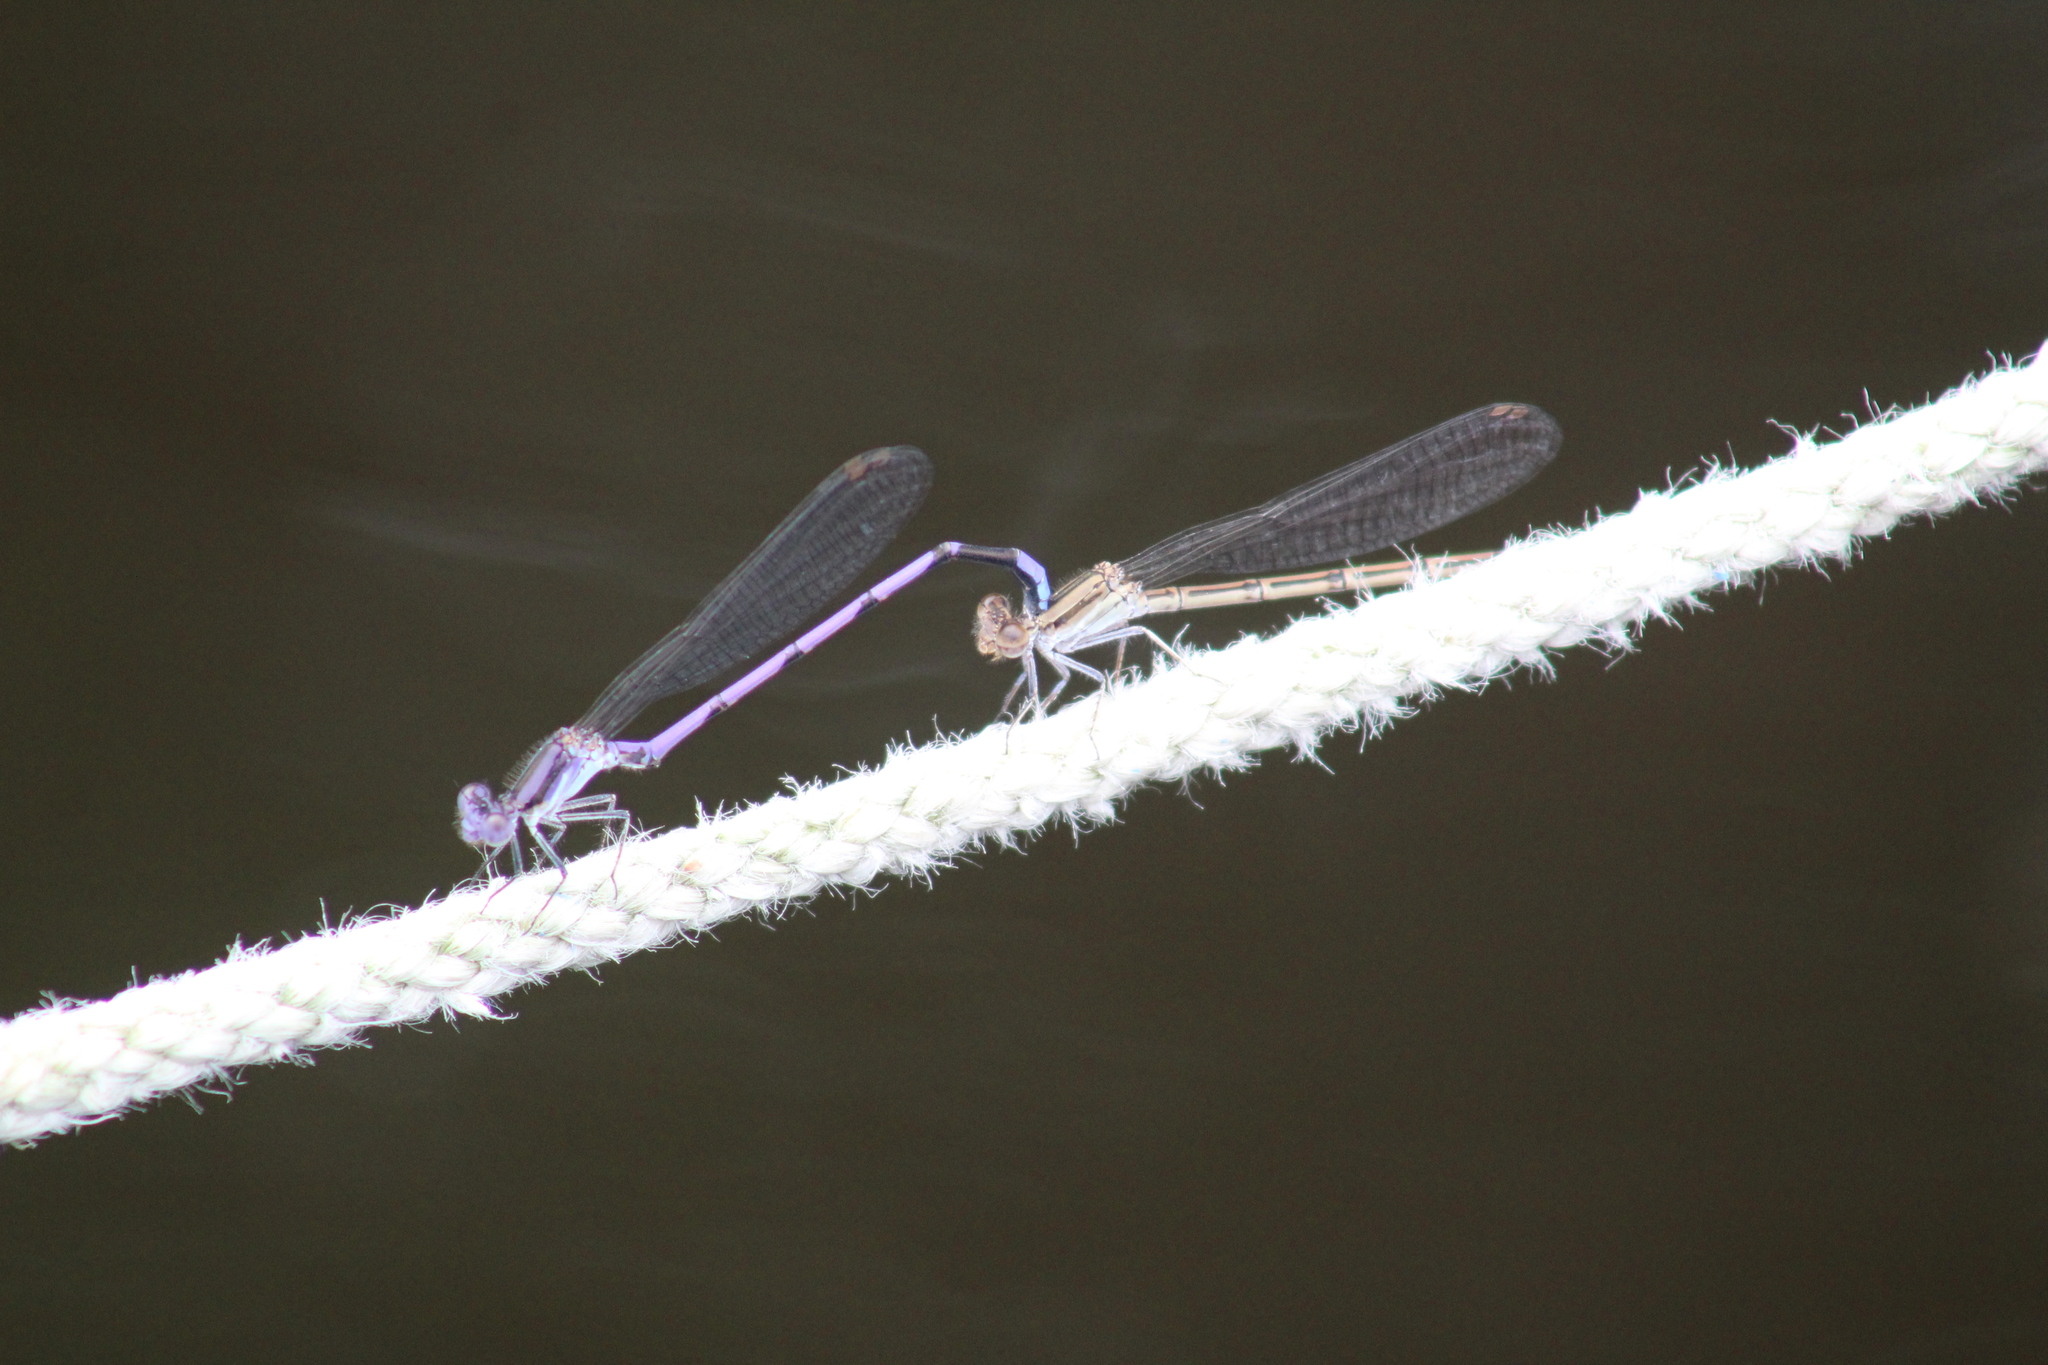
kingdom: Animalia
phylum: Arthropoda
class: Insecta
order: Odonata
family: Coenagrionidae
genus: Argia
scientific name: Argia fumipennis
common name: Variable dancer
